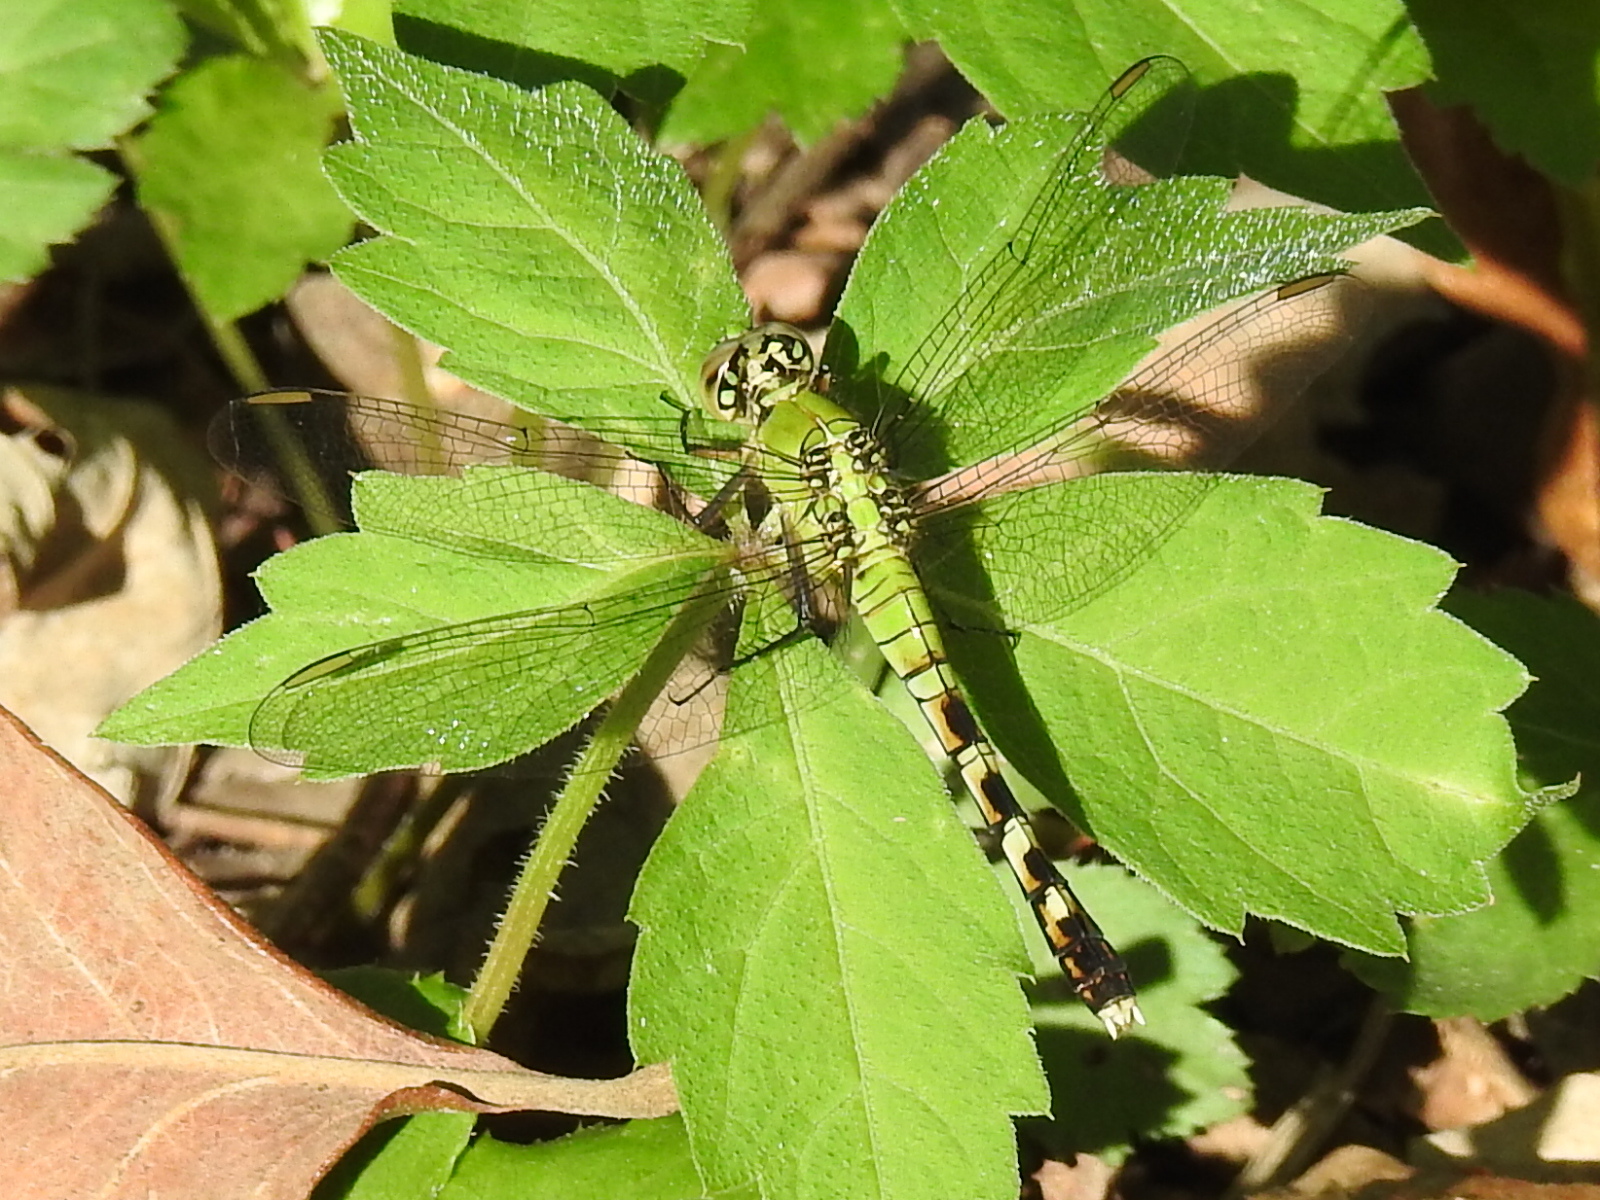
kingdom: Animalia
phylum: Arthropoda
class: Insecta
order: Odonata
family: Libellulidae
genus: Erythemis
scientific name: Erythemis simplicicollis
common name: Eastern pondhawk
